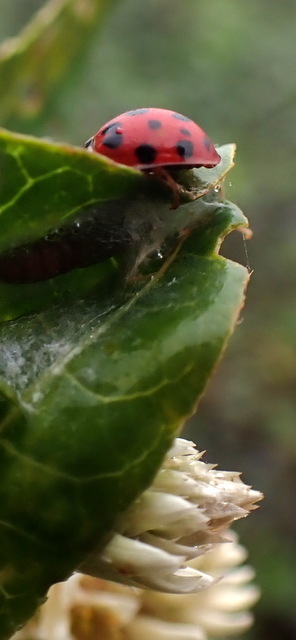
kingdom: Animalia
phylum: Arthropoda
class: Insecta
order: Coleoptera
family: Coccinellidae
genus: Harmonia
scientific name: Harmonia axyridis
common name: Harlequin ladybird
